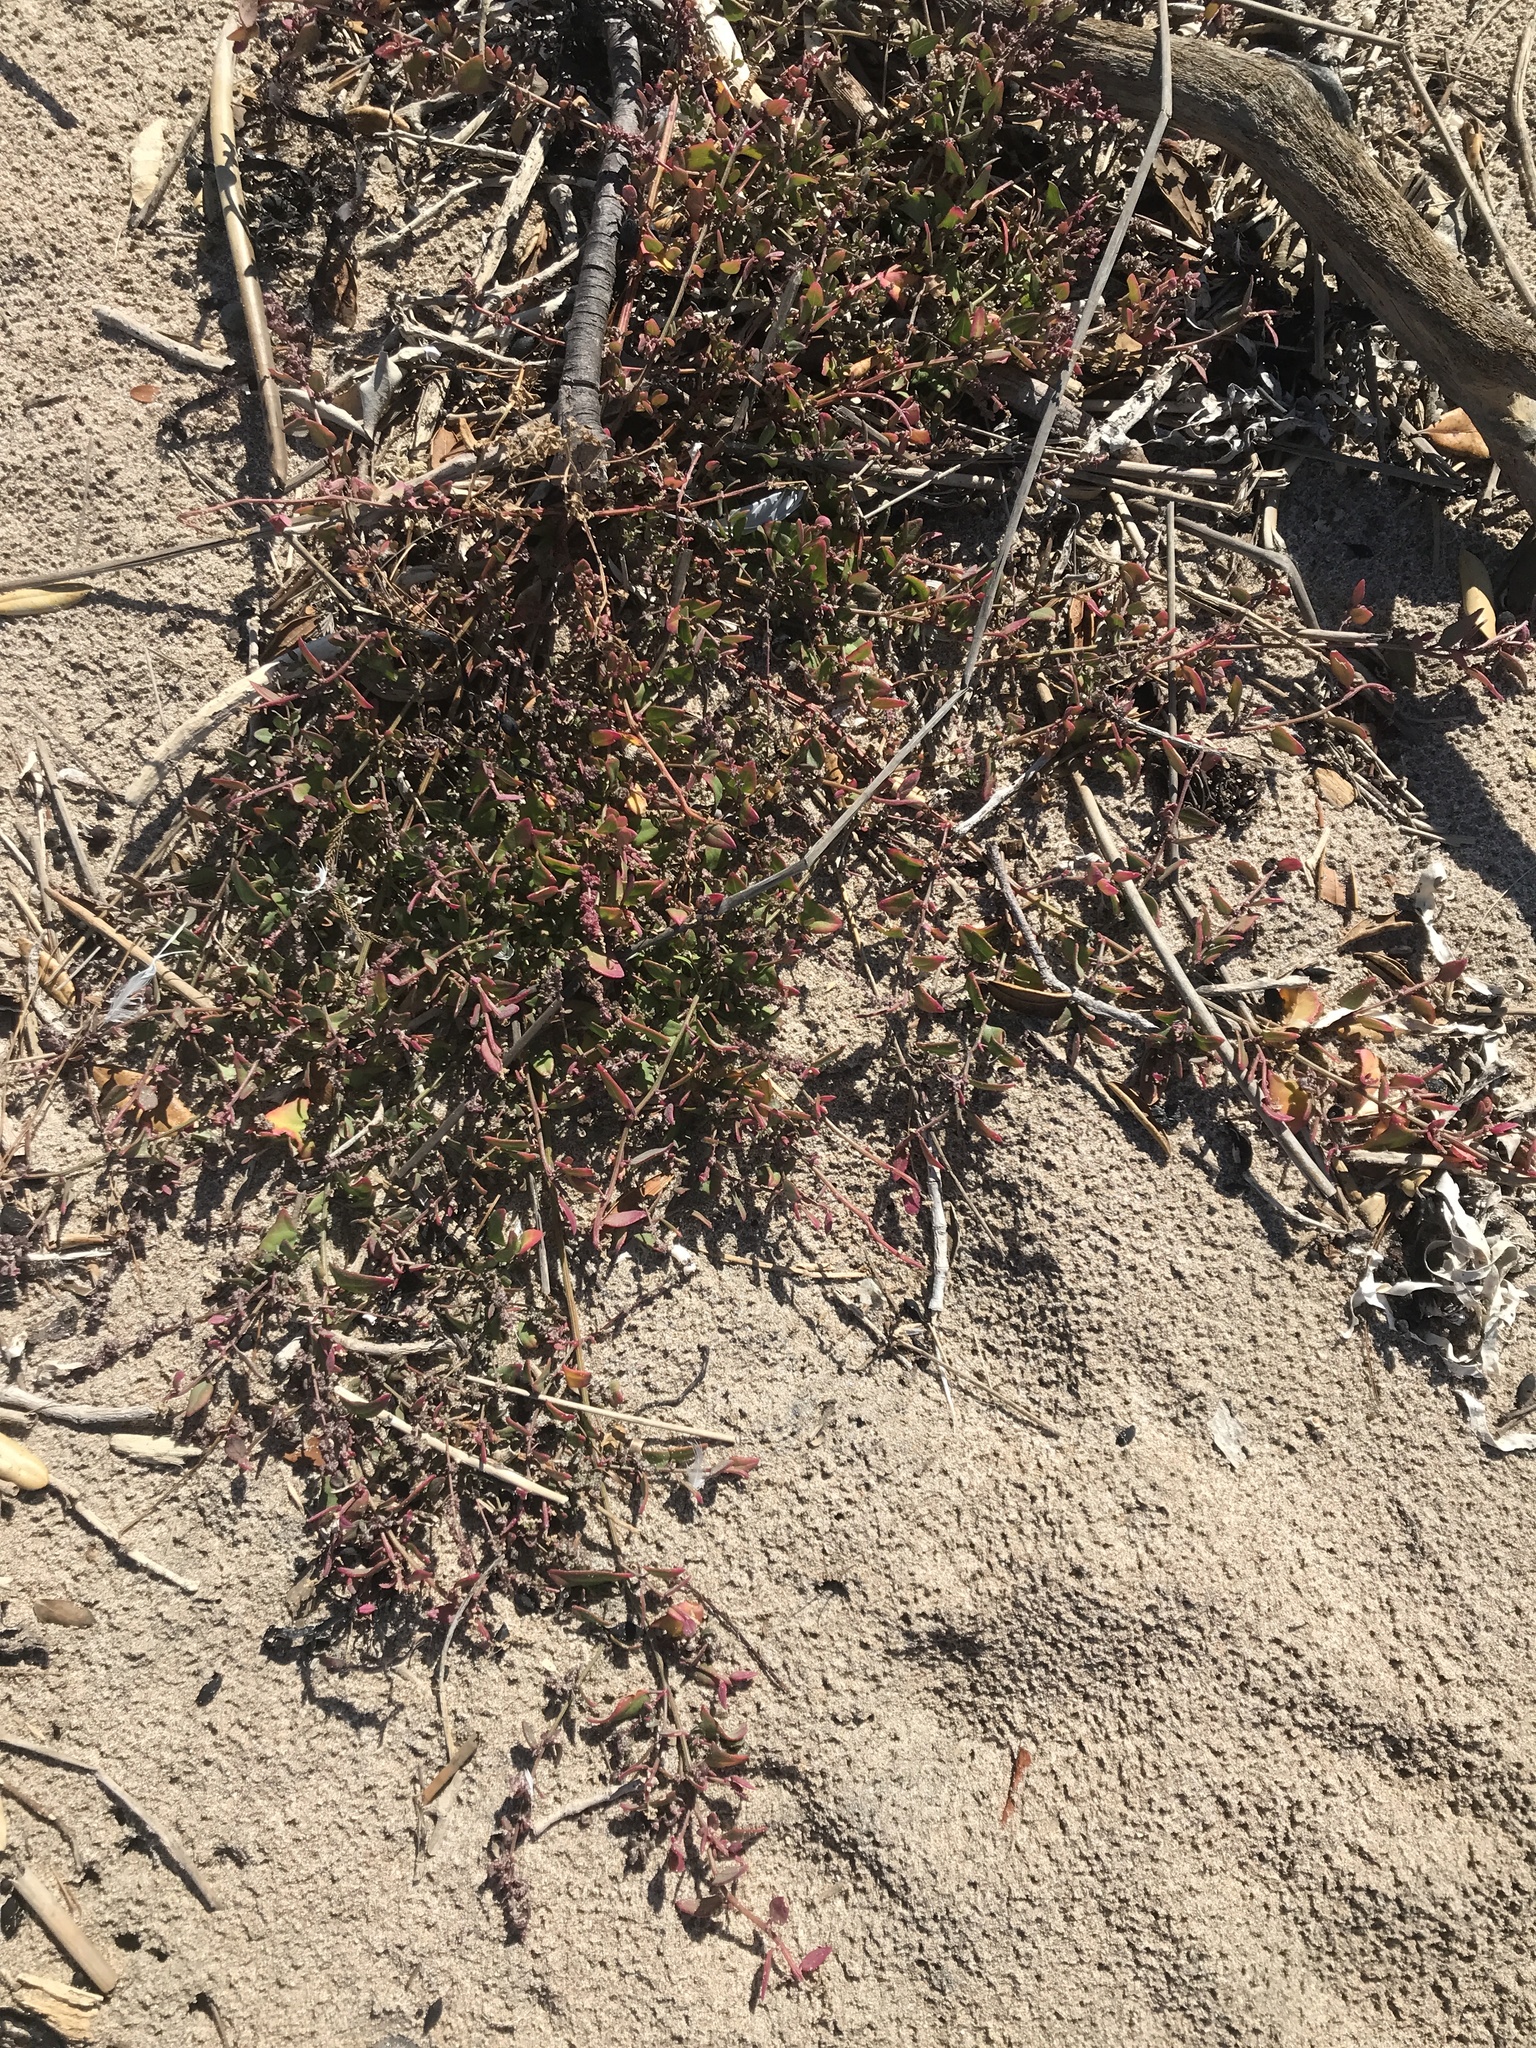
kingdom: Plantae
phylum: Tracheophyta
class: Magnoliopsida
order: Caryophyllales
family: Amaranthaceae
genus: Atriplex
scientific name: Atriplex prostrata
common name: Spear-leaved orache
